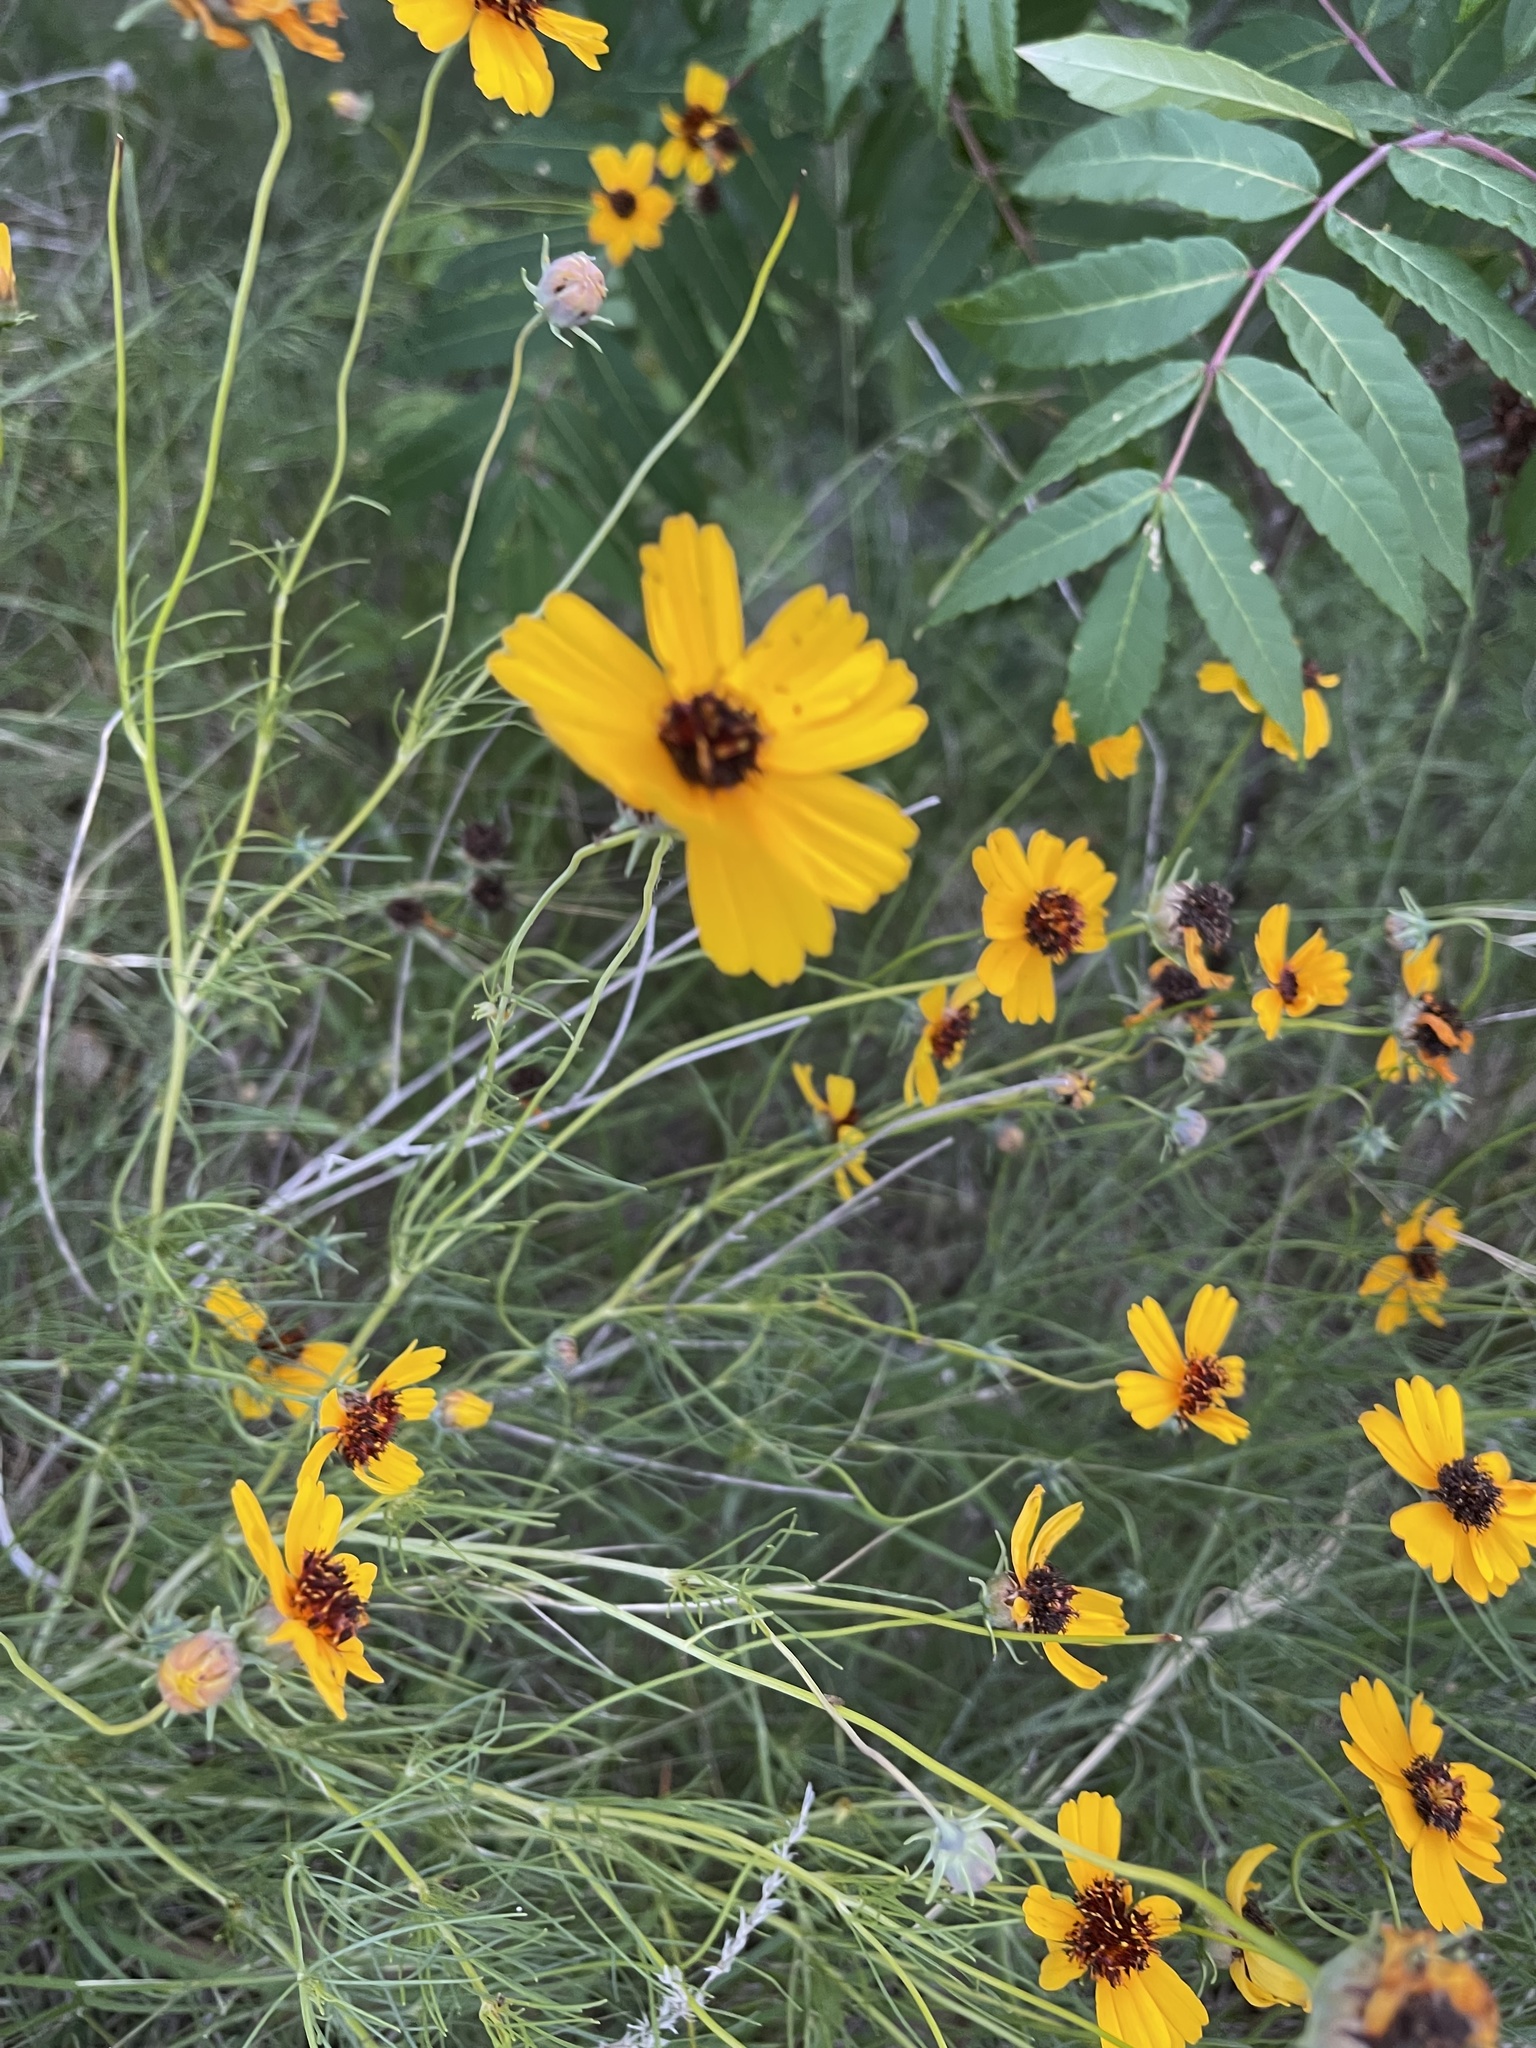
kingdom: Plantae
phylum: Tracheophyta
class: Magnoliopsida
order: Asterales
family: Asteraceae
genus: Thelesperma
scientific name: Thelesperma filifolium
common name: Stiff greenthread
